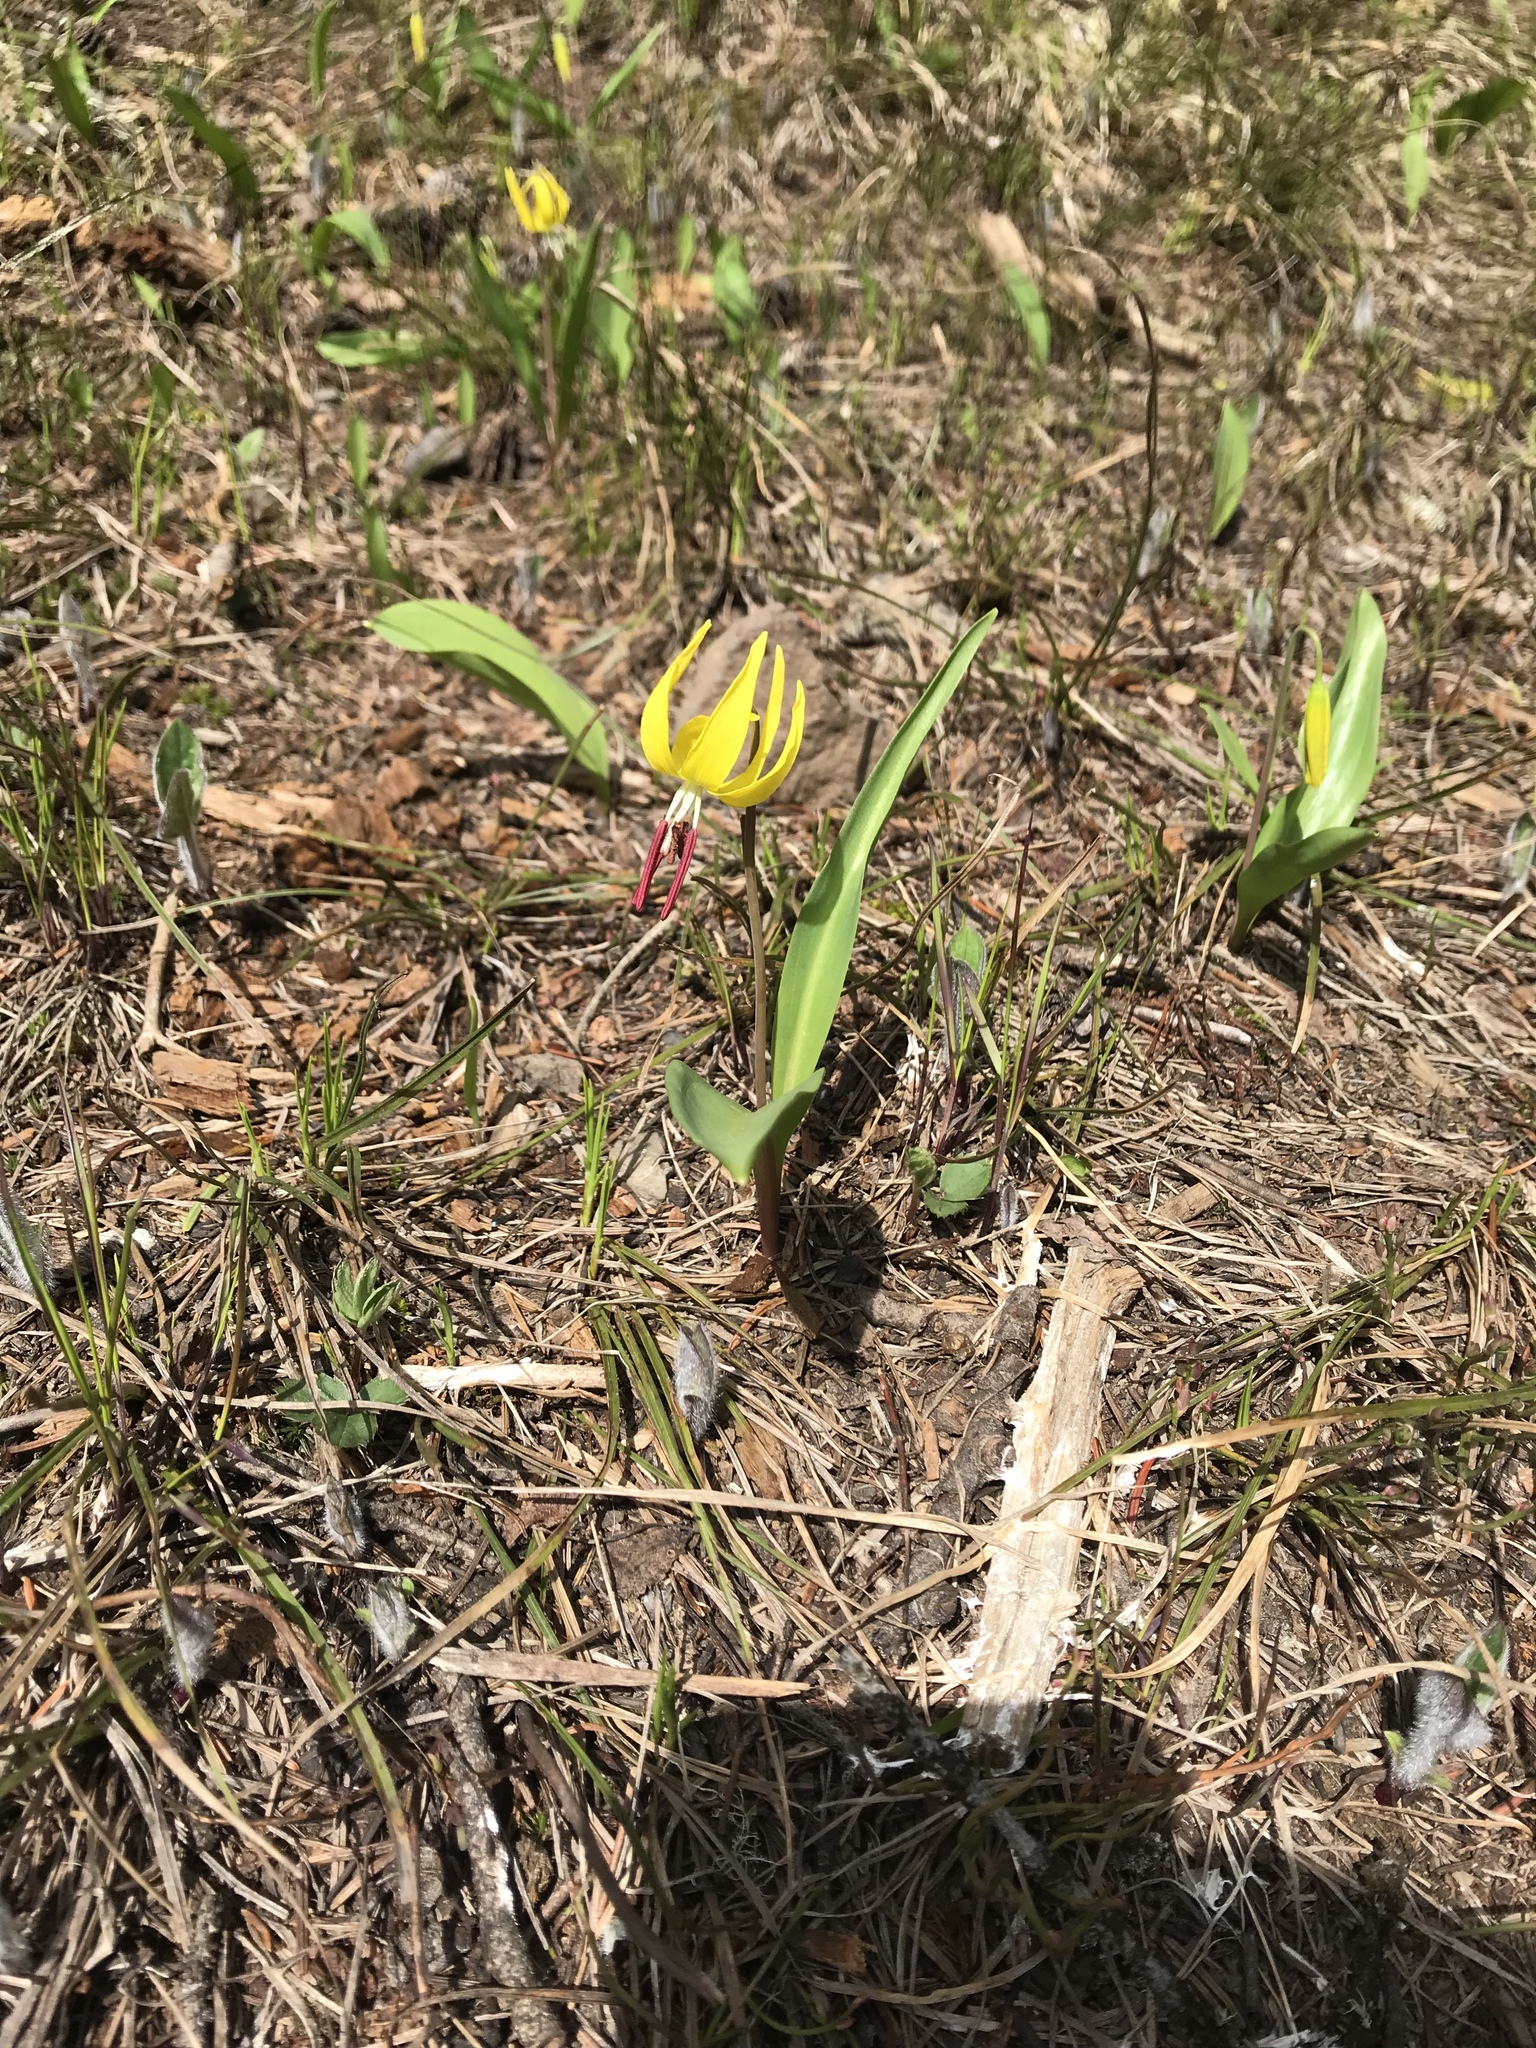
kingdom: Plantae
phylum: Tracheophyta
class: Liliopsida
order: Liliales
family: Liliaceae
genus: Erythronium
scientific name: Erythronium grandiflorum
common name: Avalanche-lily
